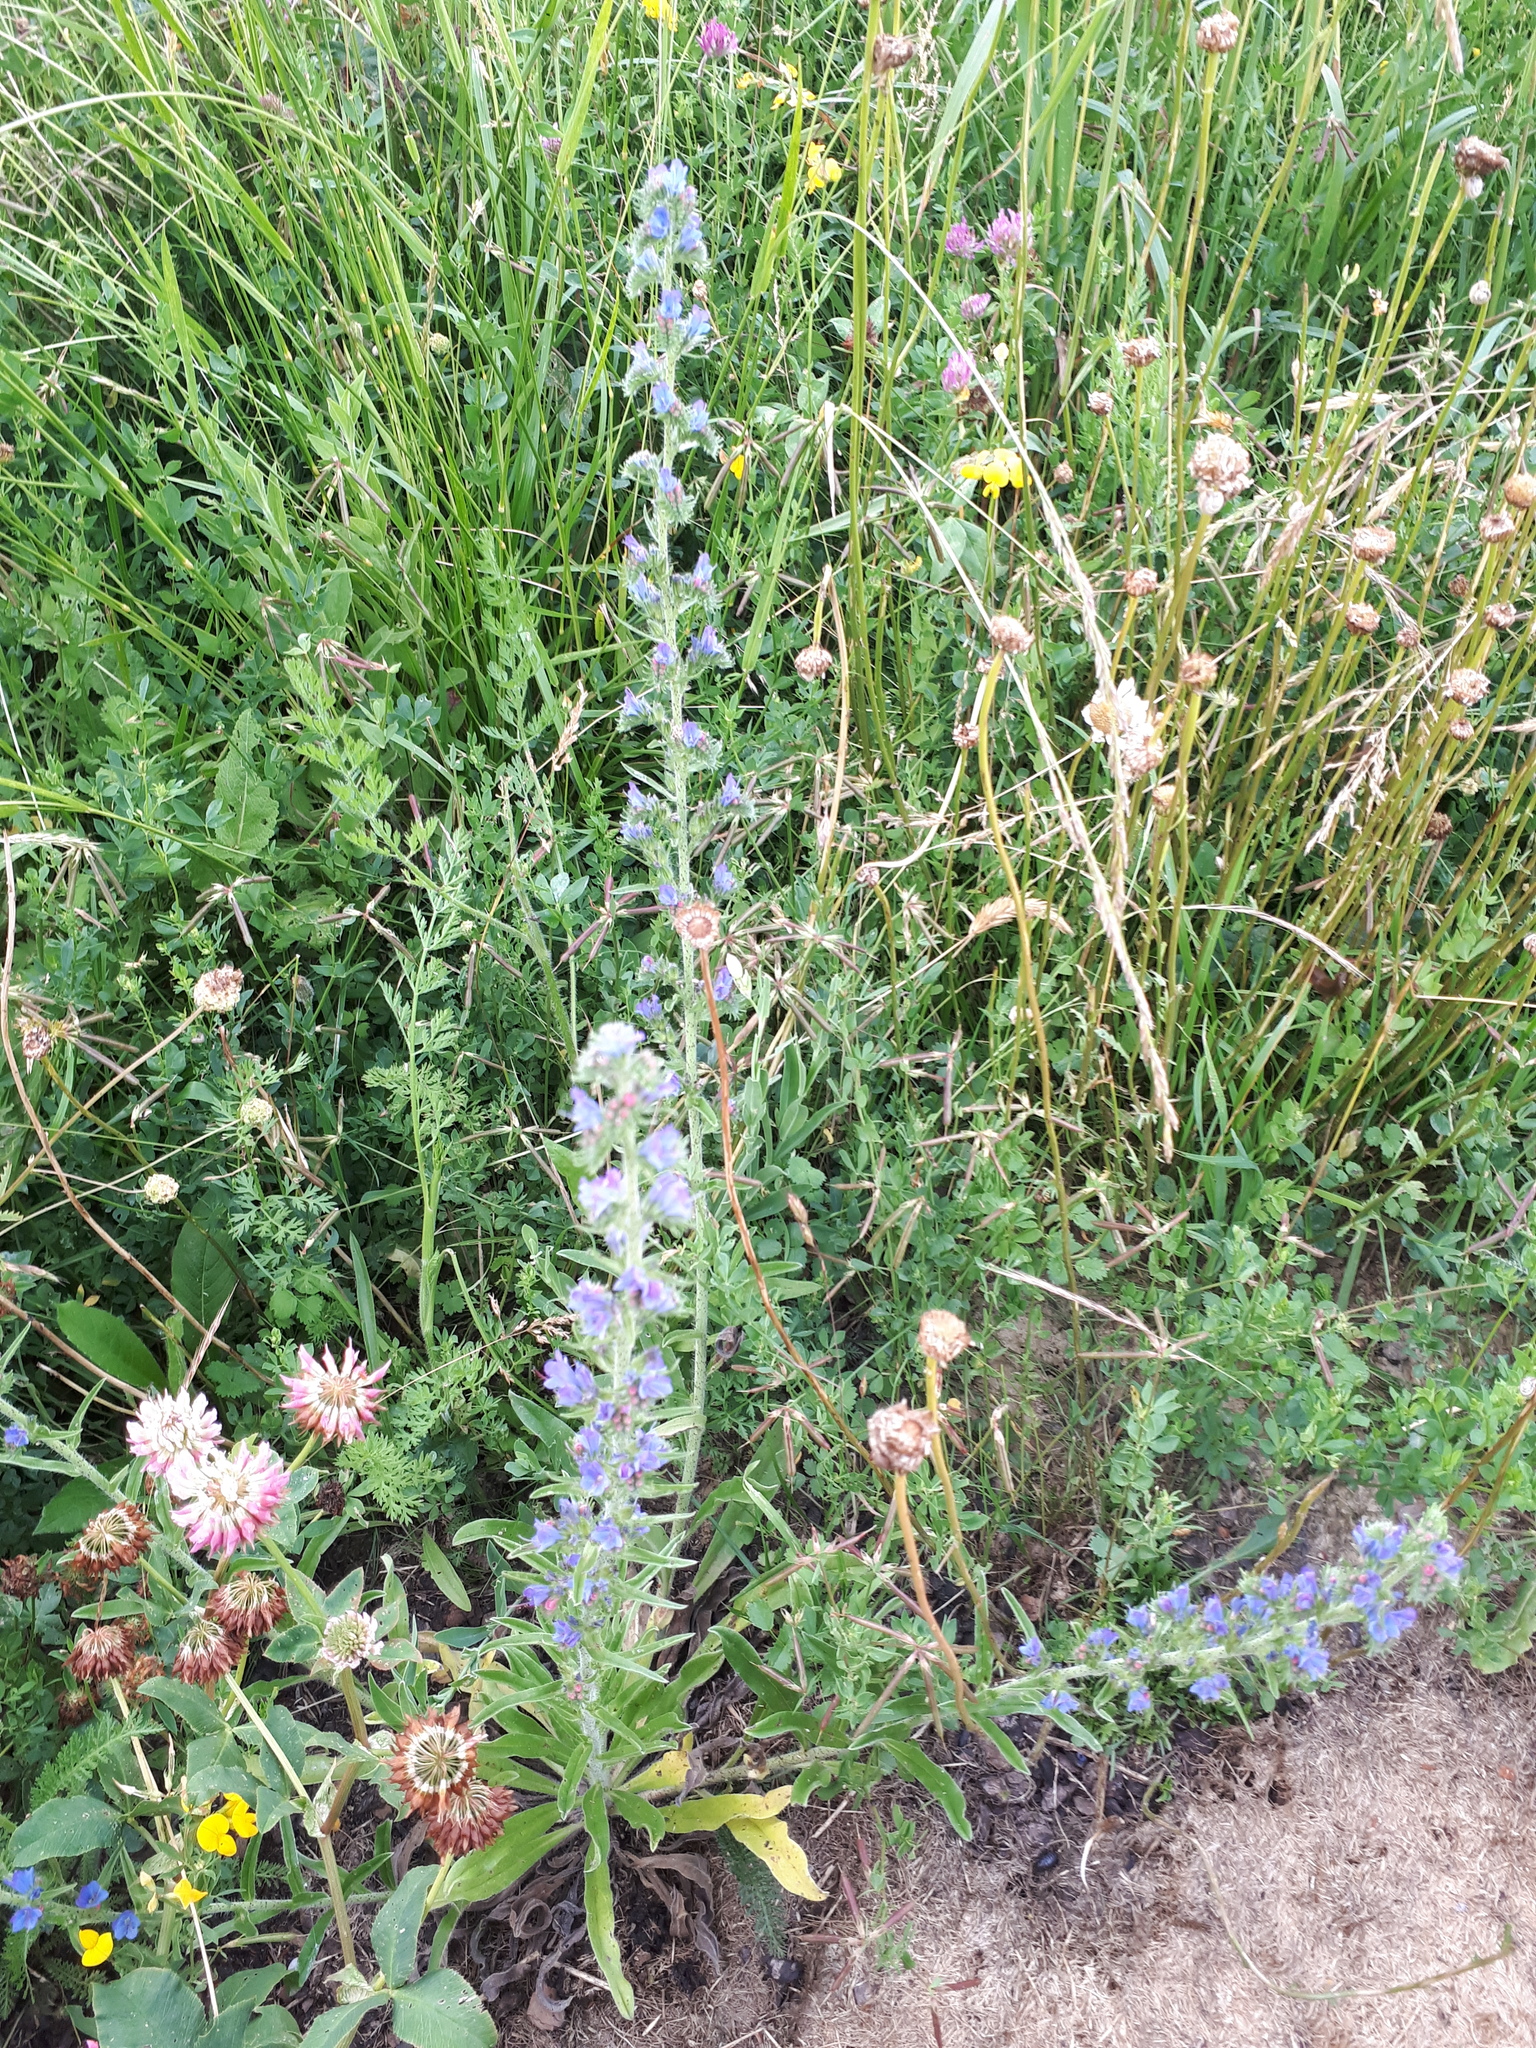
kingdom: Plantae
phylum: Tracheophyta
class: Magnoliopsida
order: Boraginales
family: Boraginaceae
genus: Echium
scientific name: Echium vulgare
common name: Common viper's bugloss
